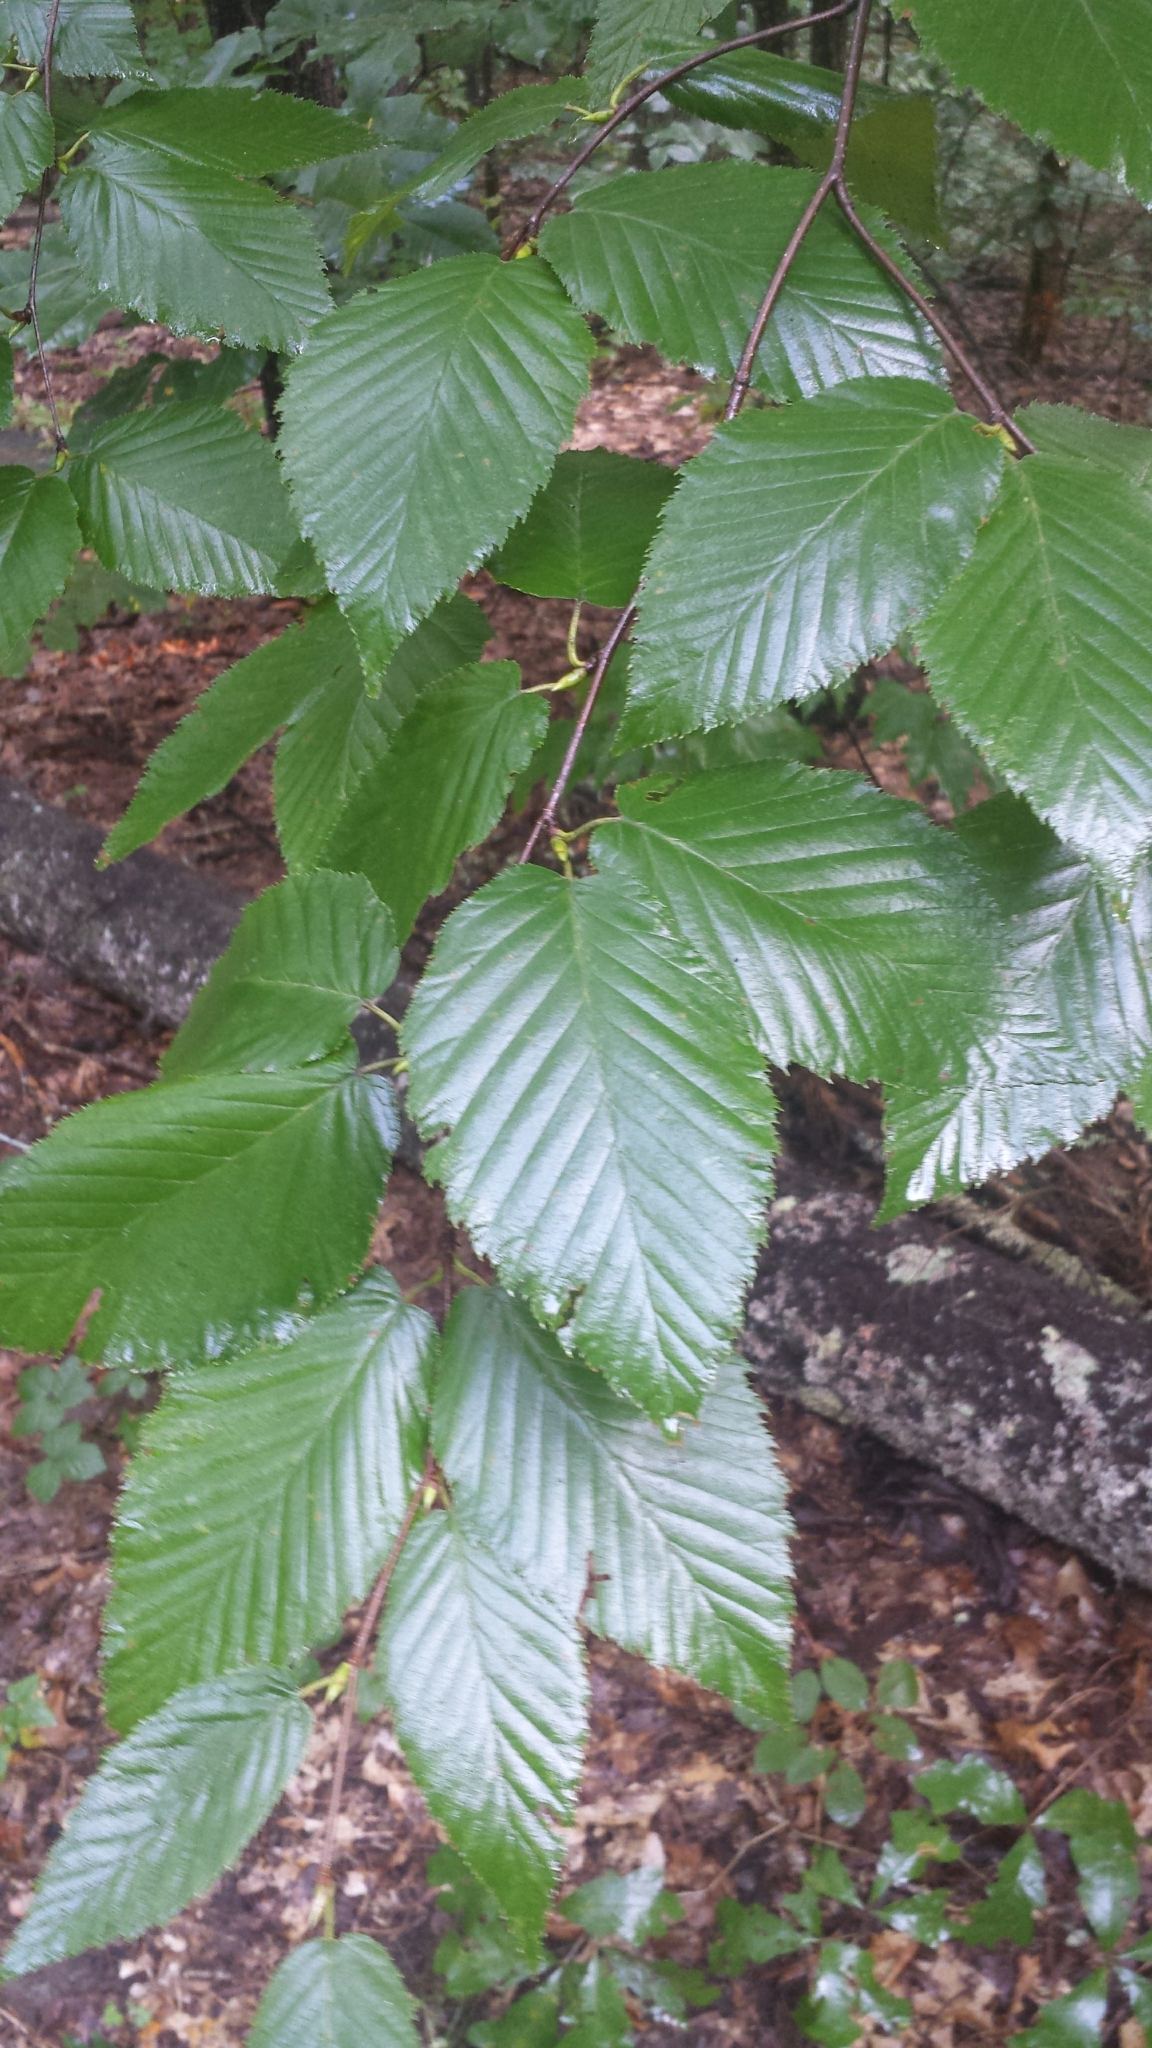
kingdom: Plantae
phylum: Tracheophyta
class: Magnoliopsida
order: Fagales
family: Fagaceae
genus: Fagus
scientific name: Fagus grandifolia
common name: American beech
